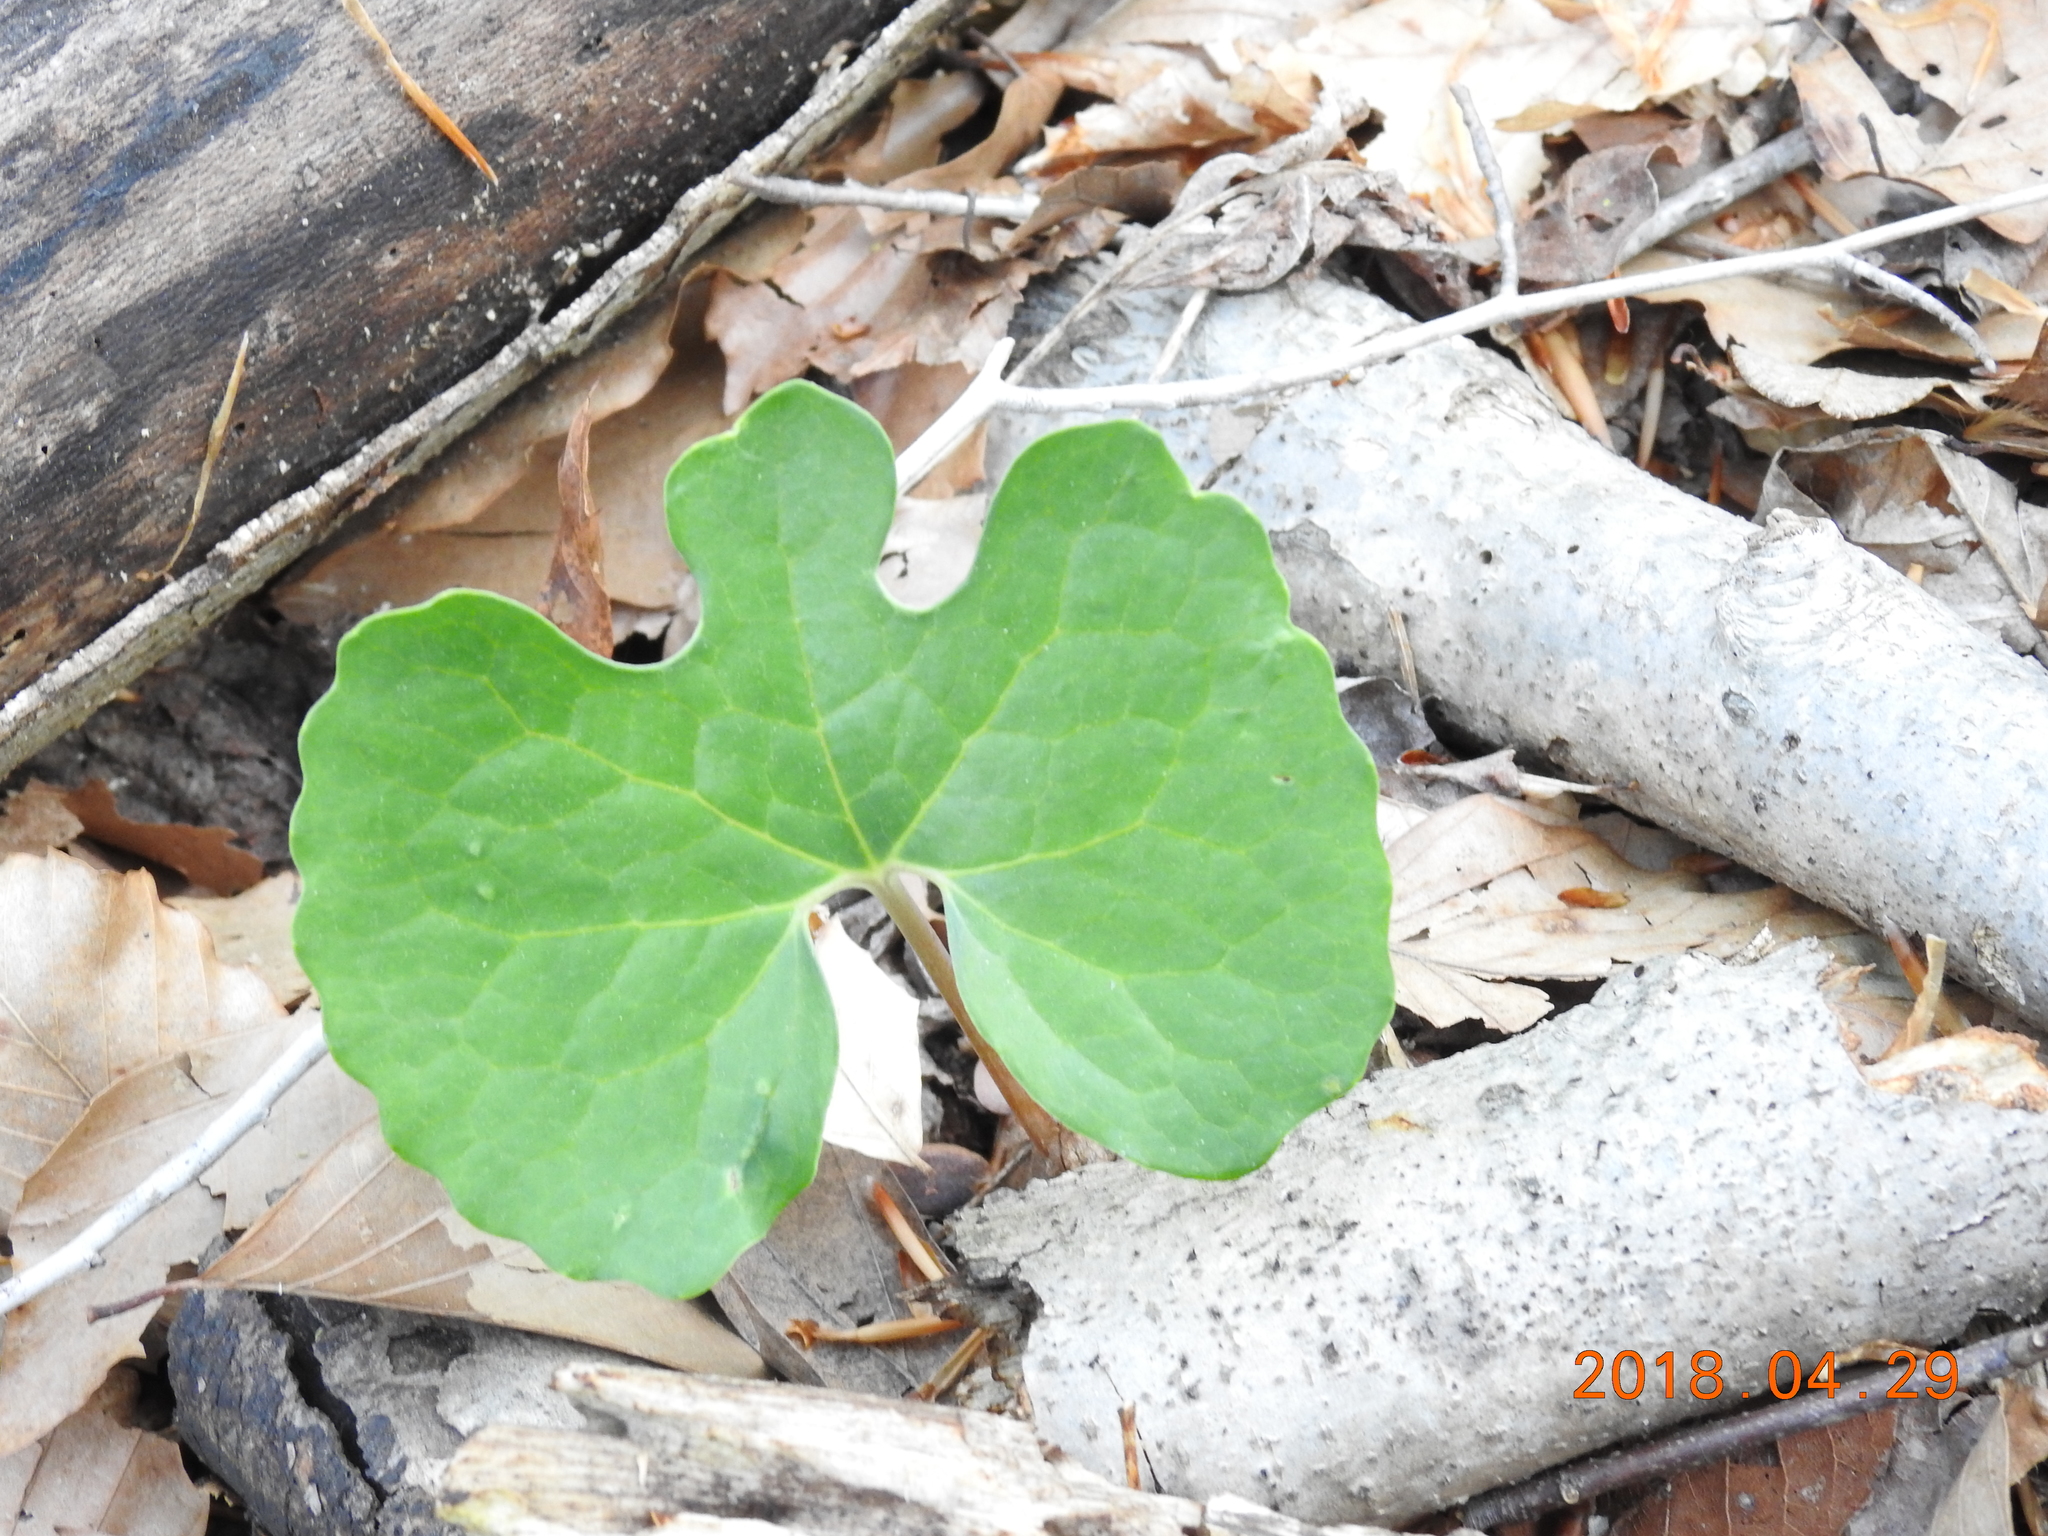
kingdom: Plantae
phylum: Tracheophyta
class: Magnoliopsida
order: Ranunculales
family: Papaveraceae
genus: Sanguinaria
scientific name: Sanguinaria canadensis
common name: Bloodroot
